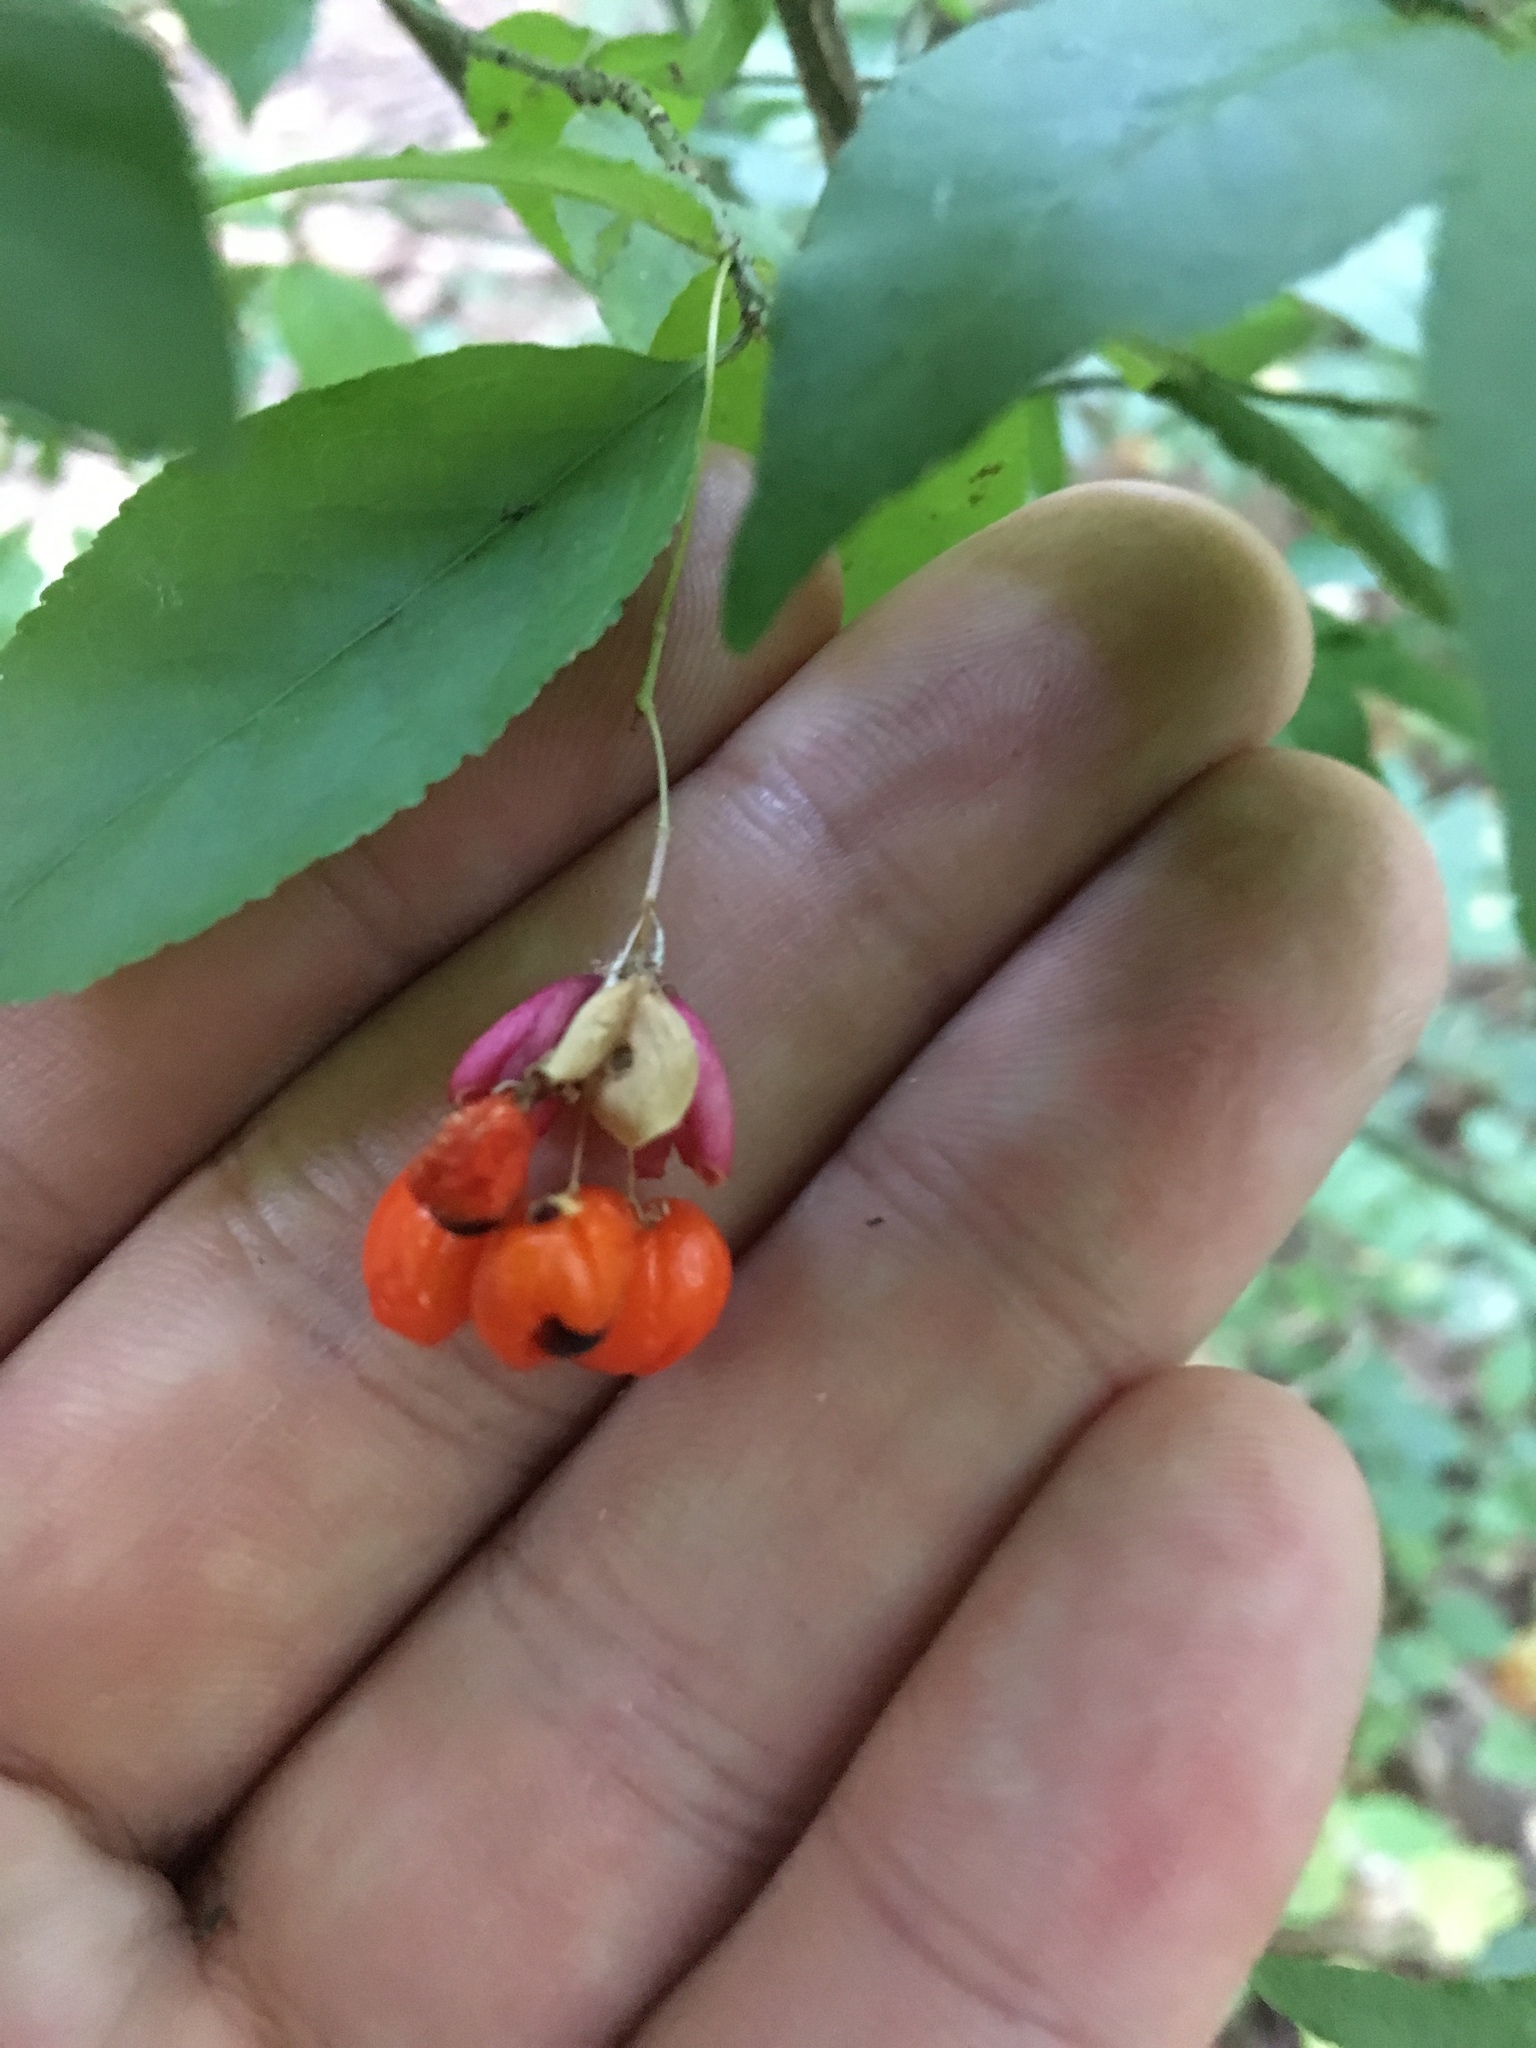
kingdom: Plantae
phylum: Tracheophyta
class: Magnoliopsida
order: Celastrales
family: Celastraceae
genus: Euonymus
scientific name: Euonymus verrucosus
